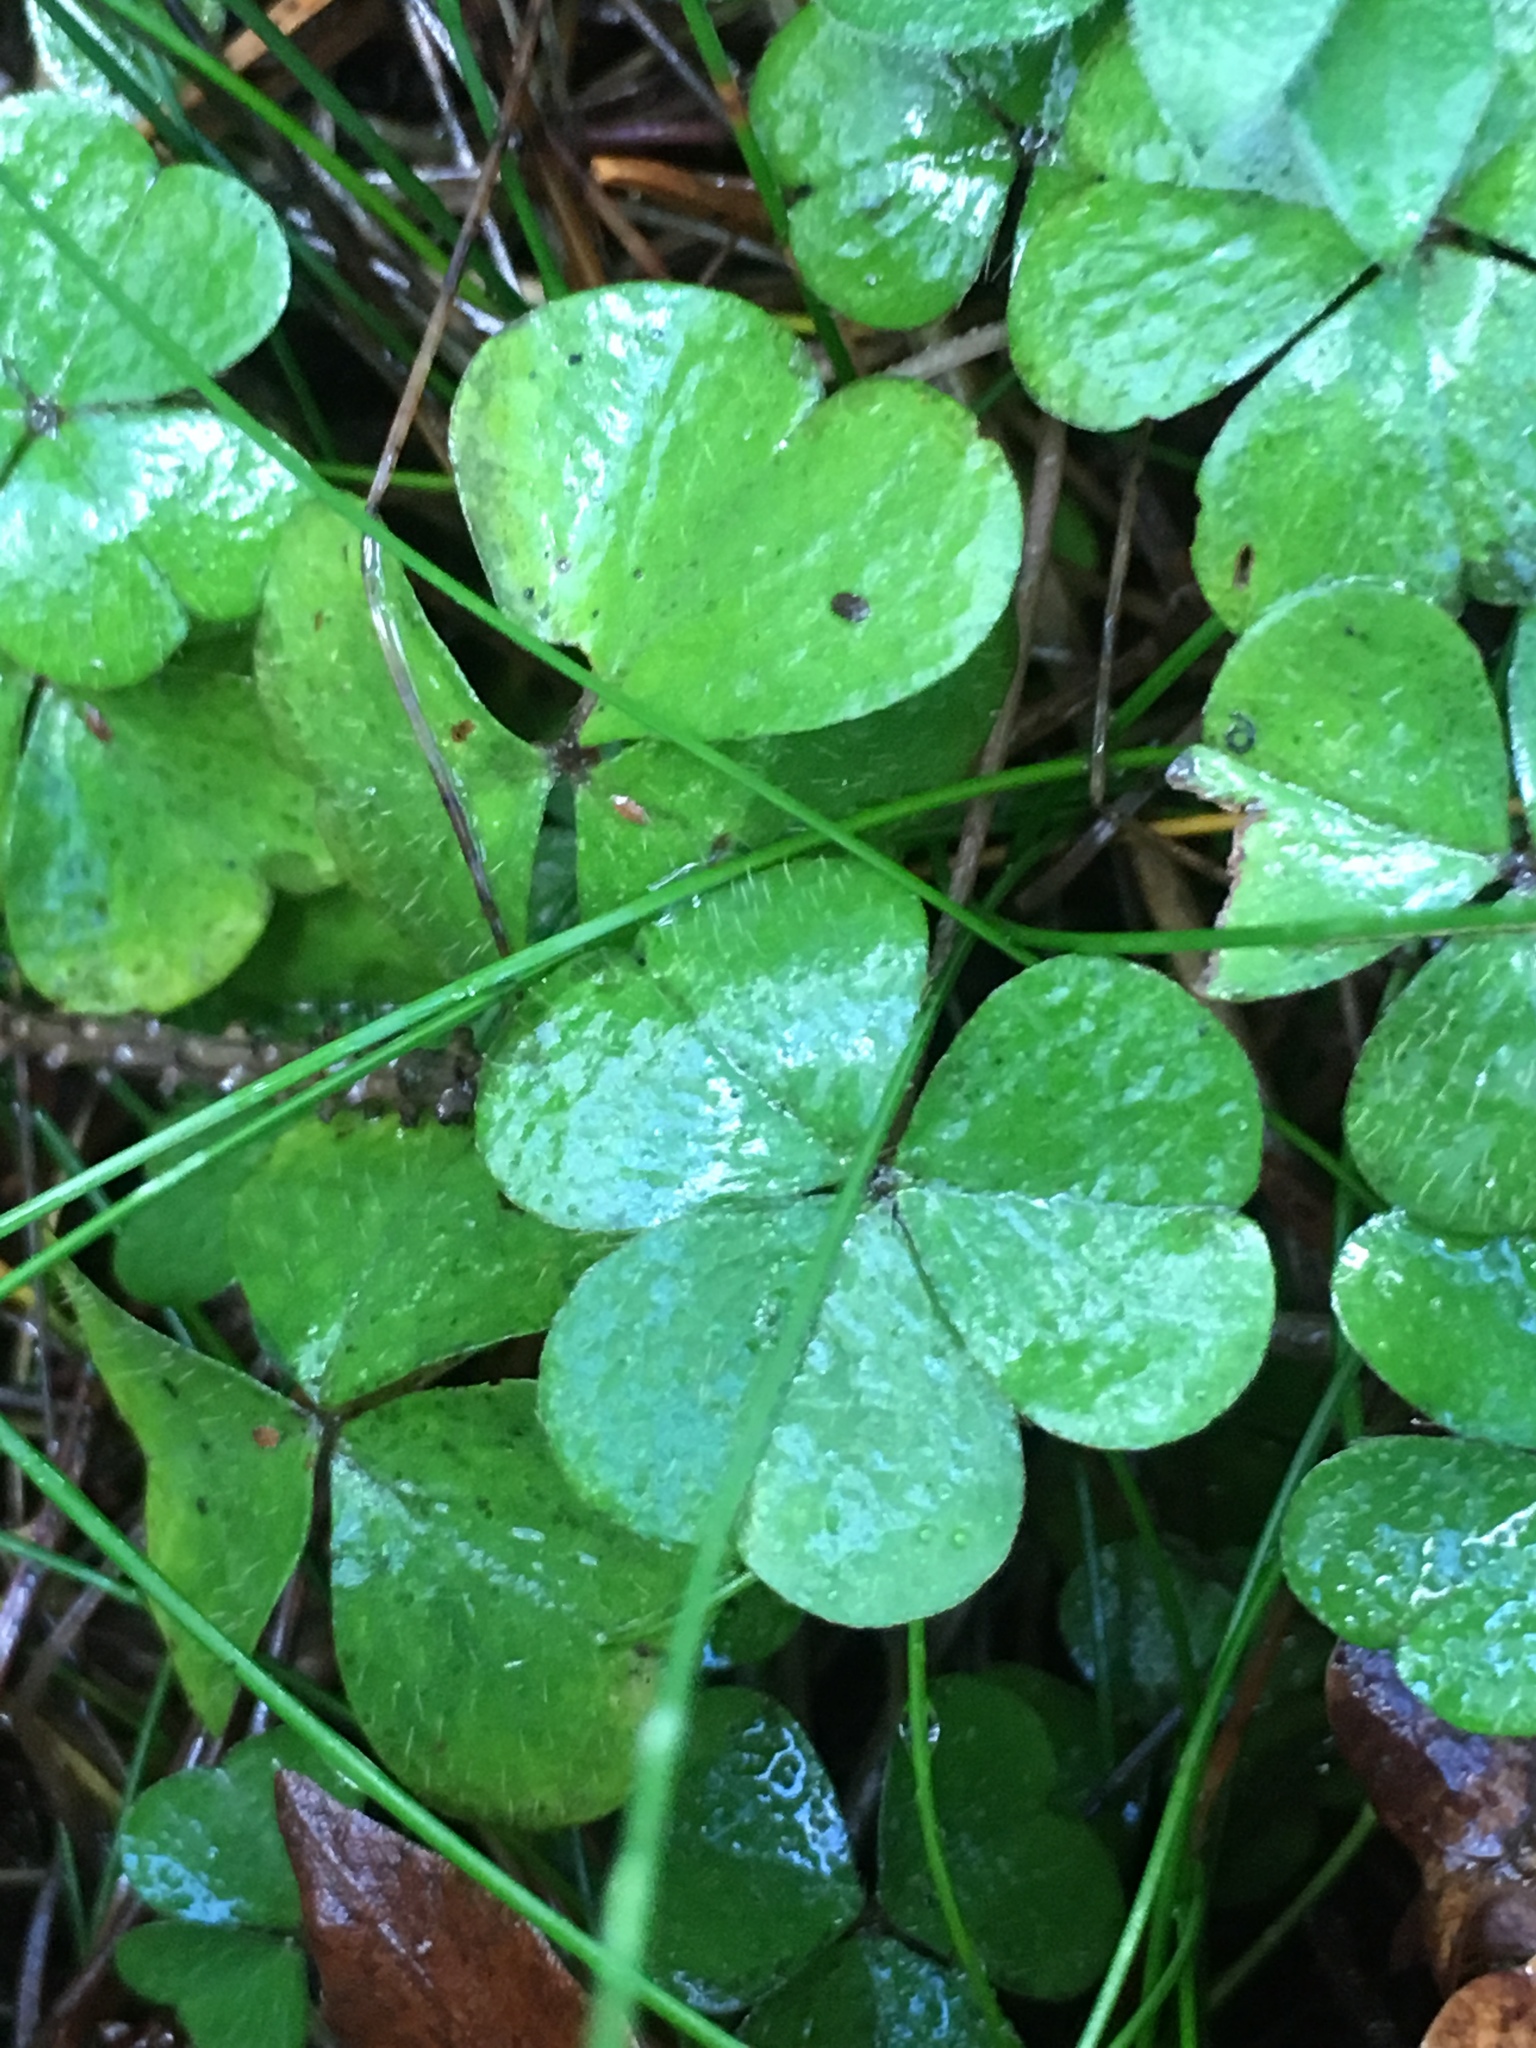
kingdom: Plantae
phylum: Tracheophyta
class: Magnoliopsida
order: Oxalidales
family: Oxalidaceae
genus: Oxalis
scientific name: Oxalis acetosella
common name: Wood-sorrel
